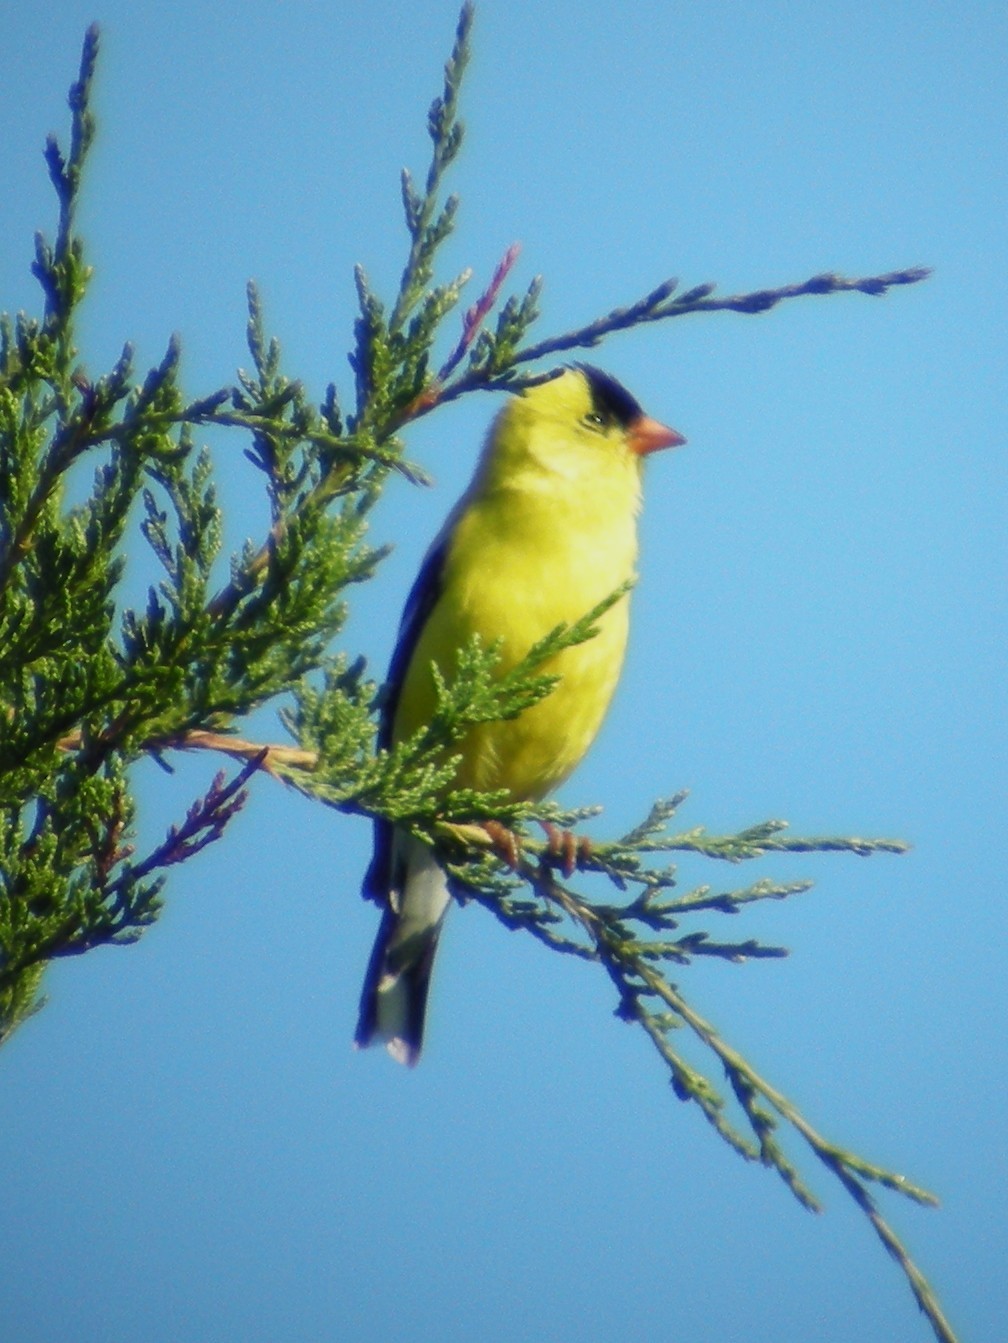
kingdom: Animalia
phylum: Chordata
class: Aves
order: Passeriformes
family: Fringillidae
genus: Spinus
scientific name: Spinus tristis
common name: American goldfinch
